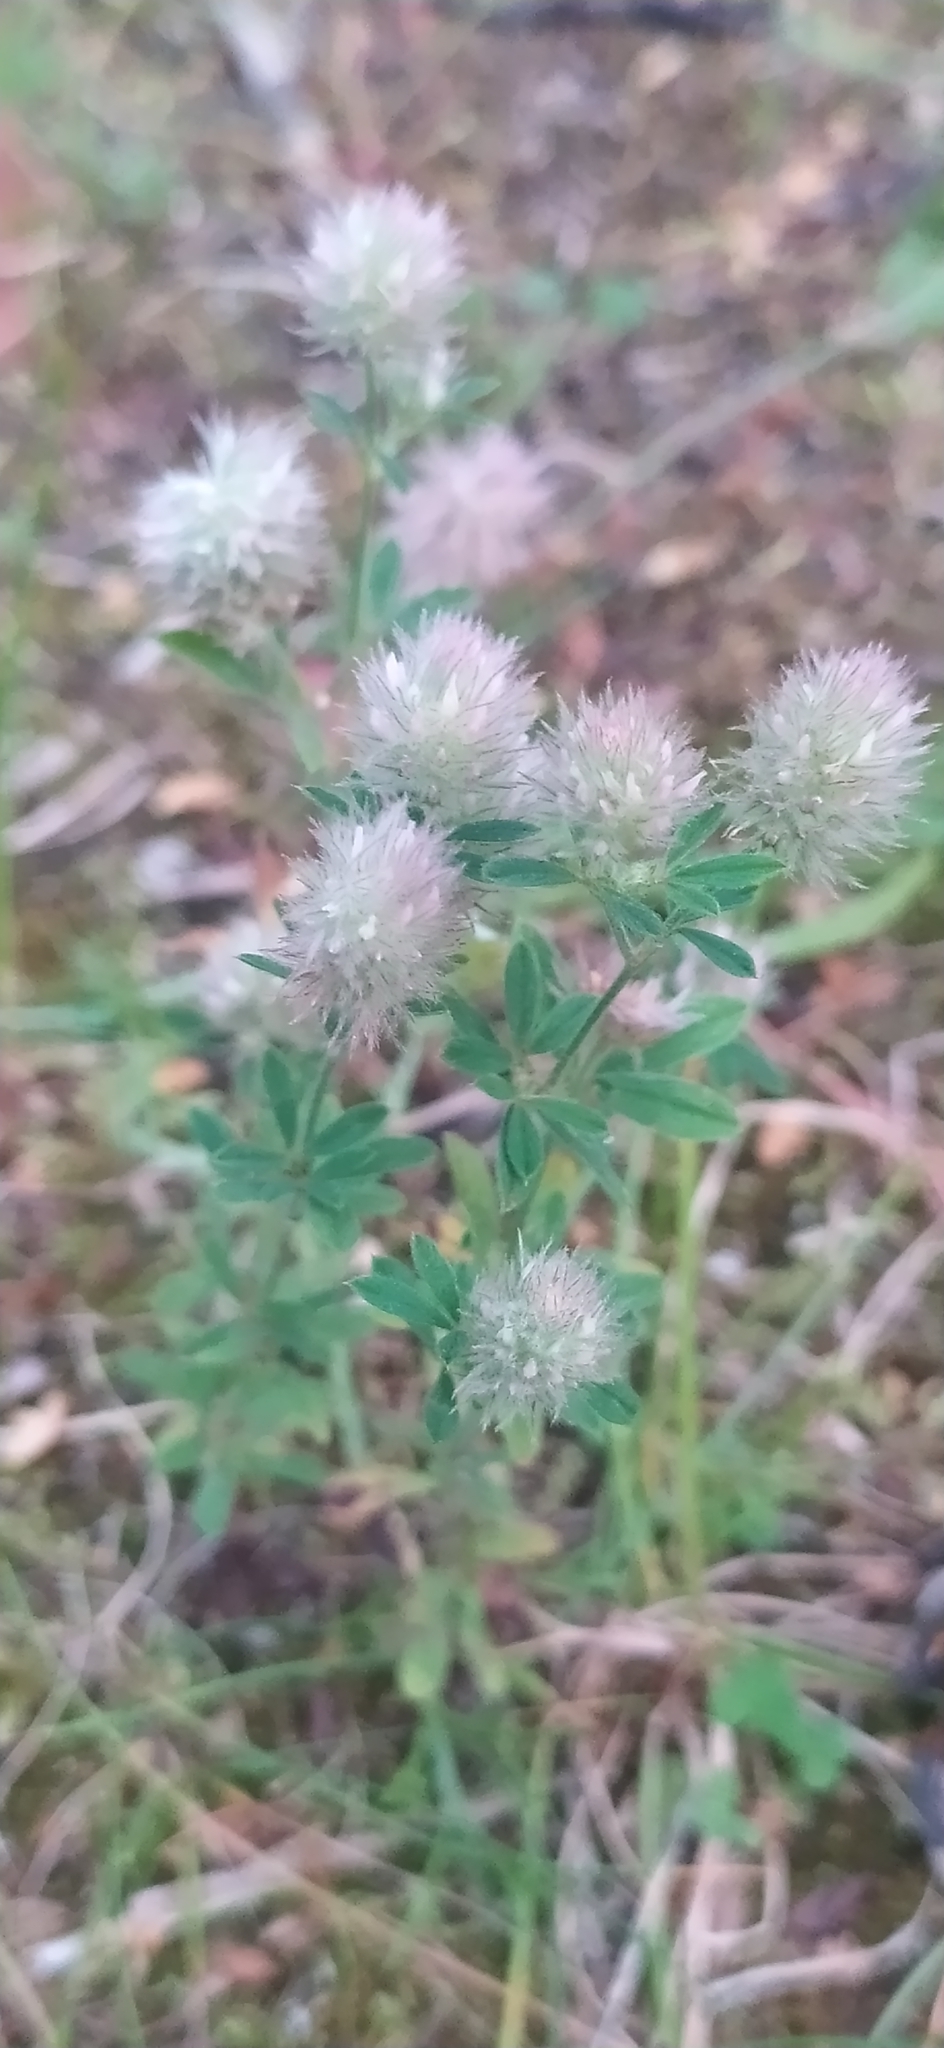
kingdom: Plantae
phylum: Tracheophyta
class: Magnoliopsida
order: Fabales
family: Fabaceae
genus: Trifolium
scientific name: Trifolium arvense
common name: Hare's-foot clover
